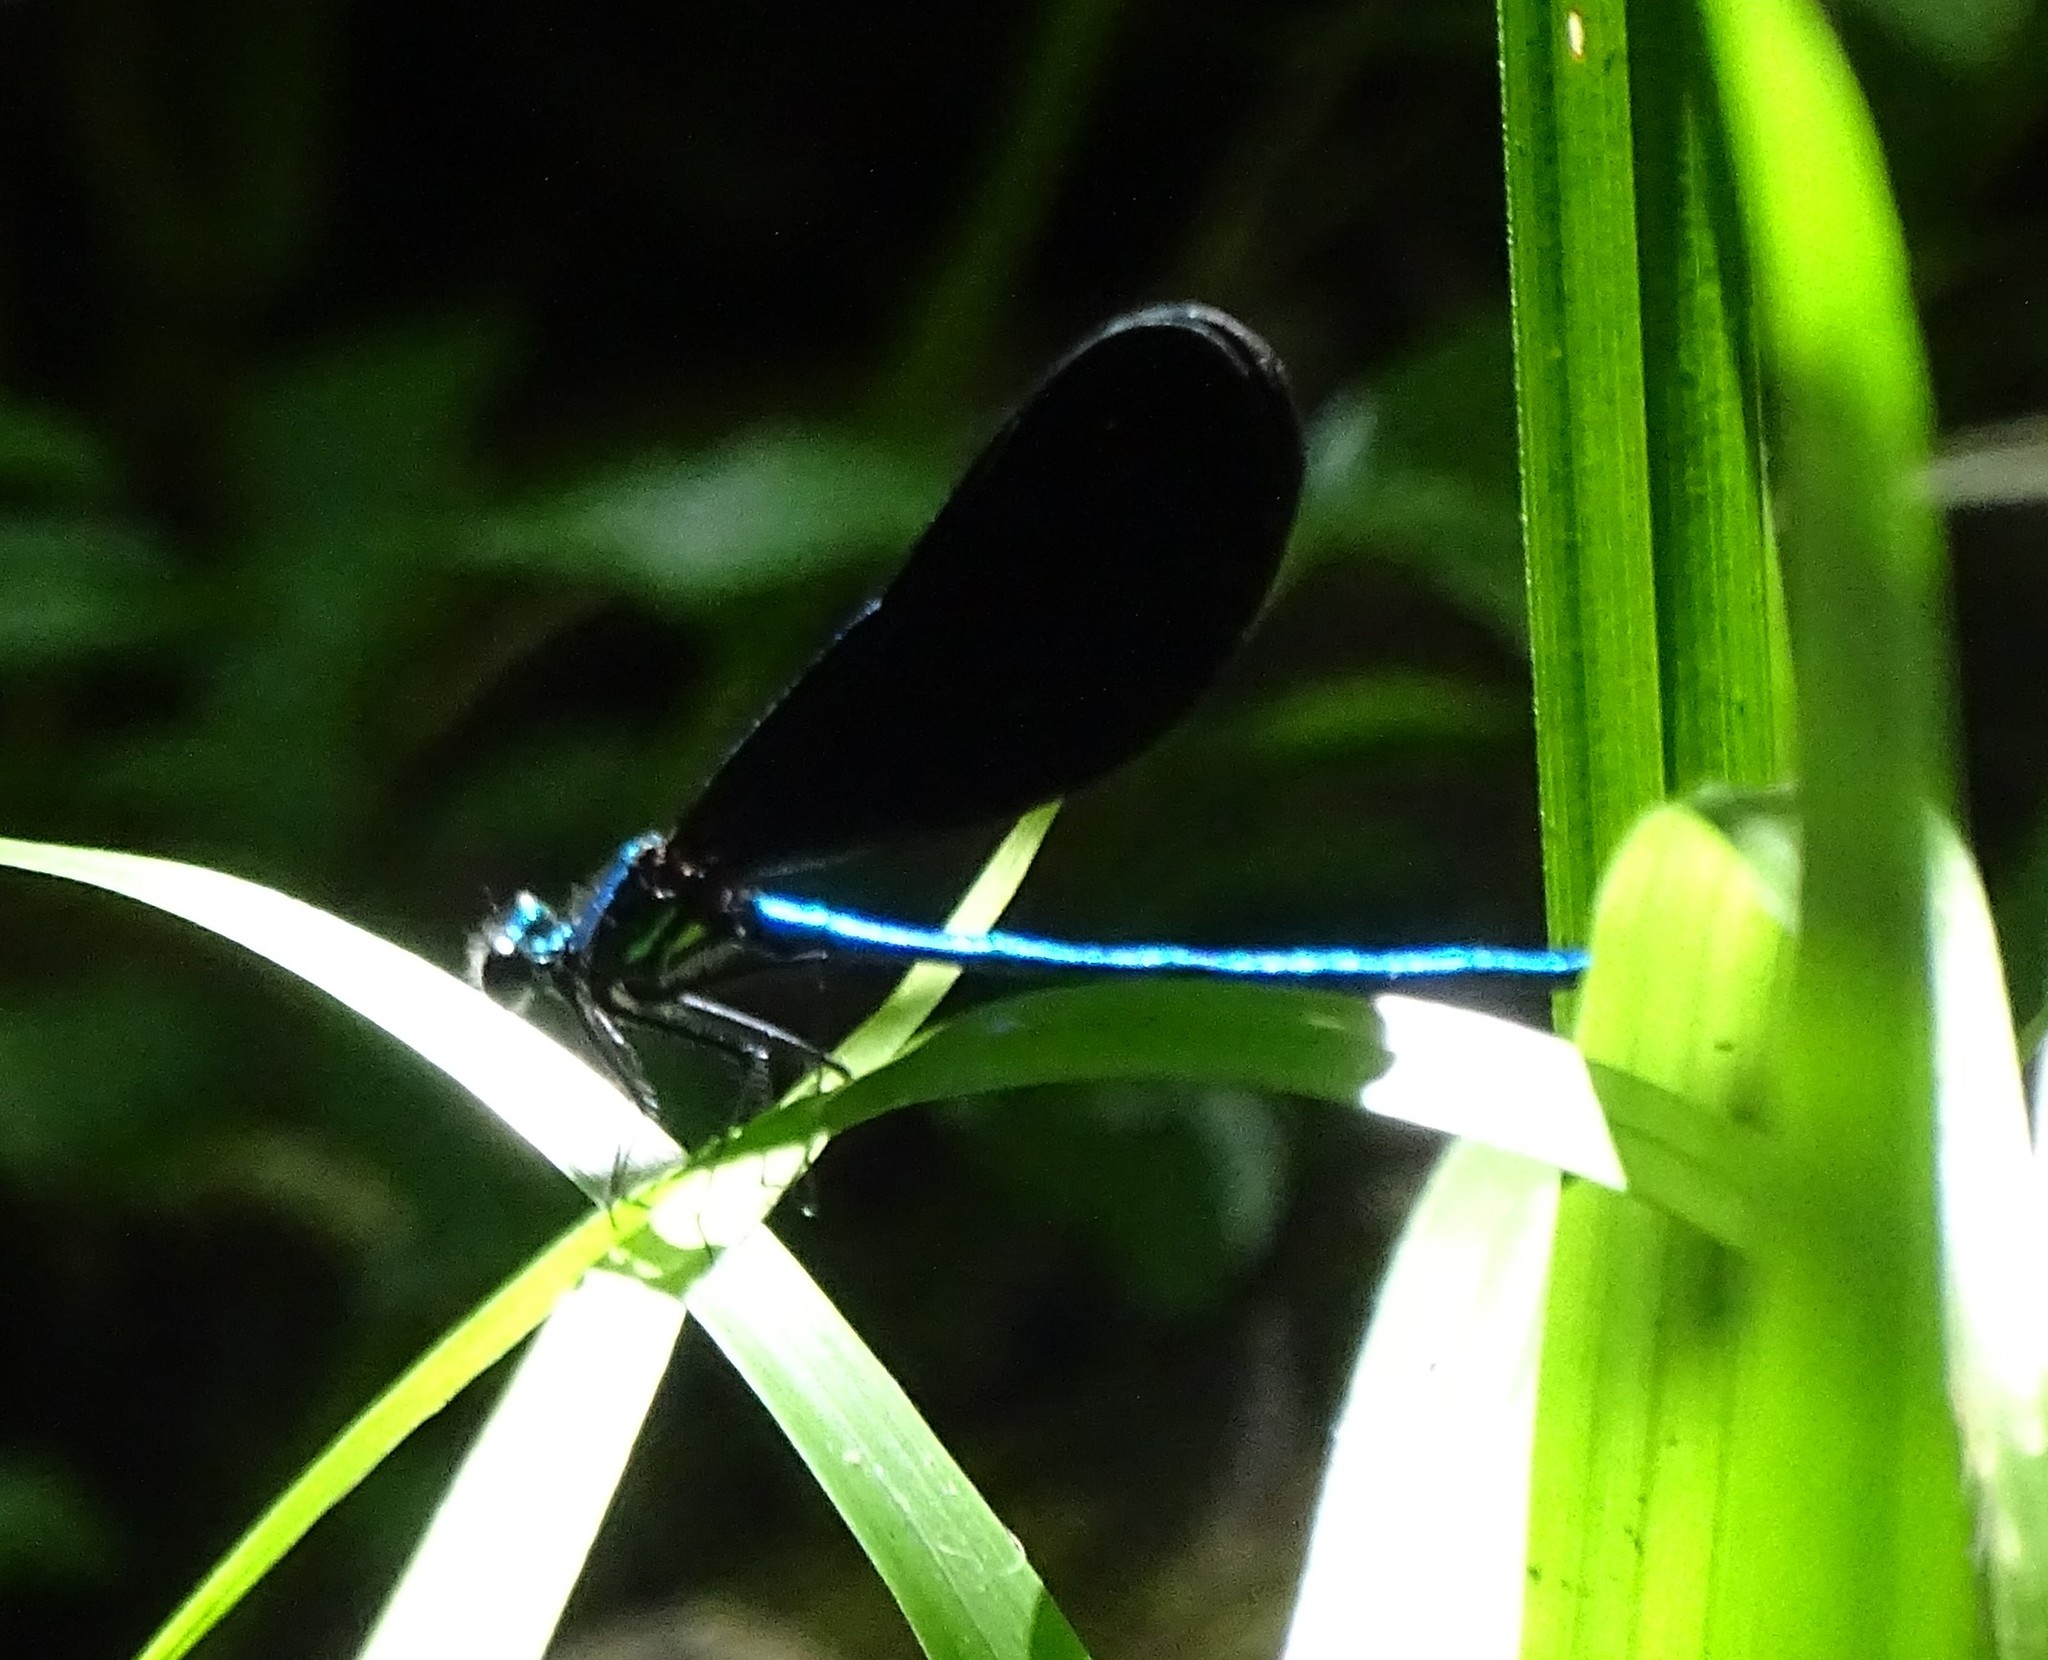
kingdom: Animalia
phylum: Arthropoda
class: Insecta
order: Odonata
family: Calopterygidae
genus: Calopteryx
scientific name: Calopteryx maculata
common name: Ebony jewelwing
